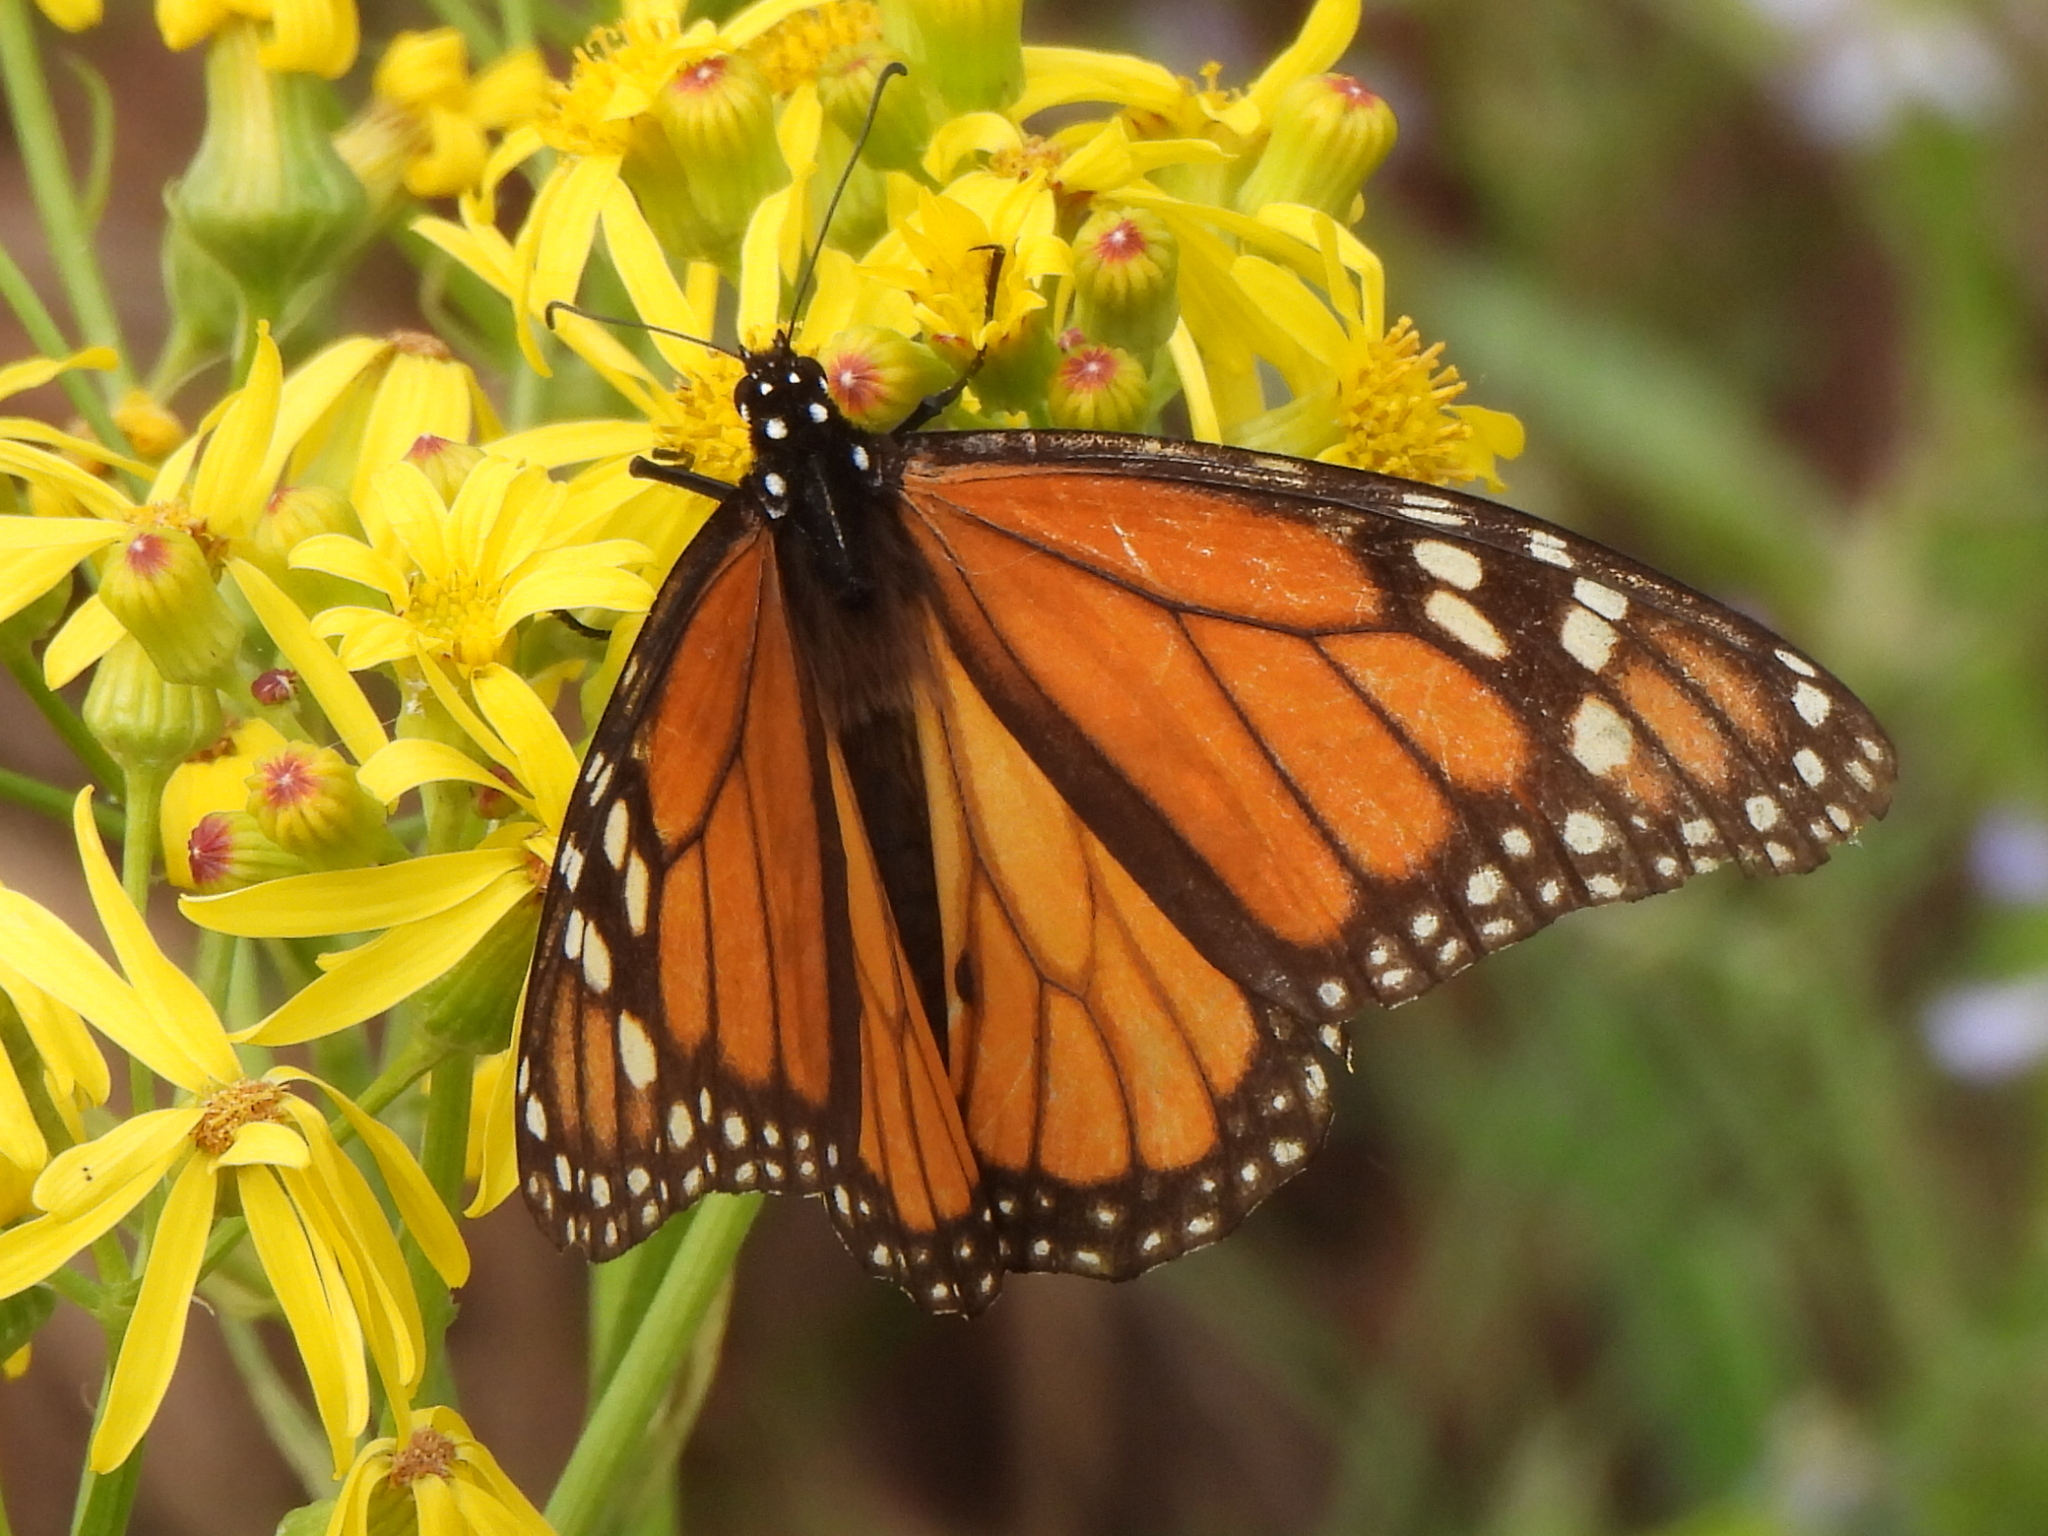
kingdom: Animalia
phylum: Arthropoda
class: Insecta
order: Lepidoptera
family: Nymphalidae
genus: Danaus
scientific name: Danaus plexippus
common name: Monarch
